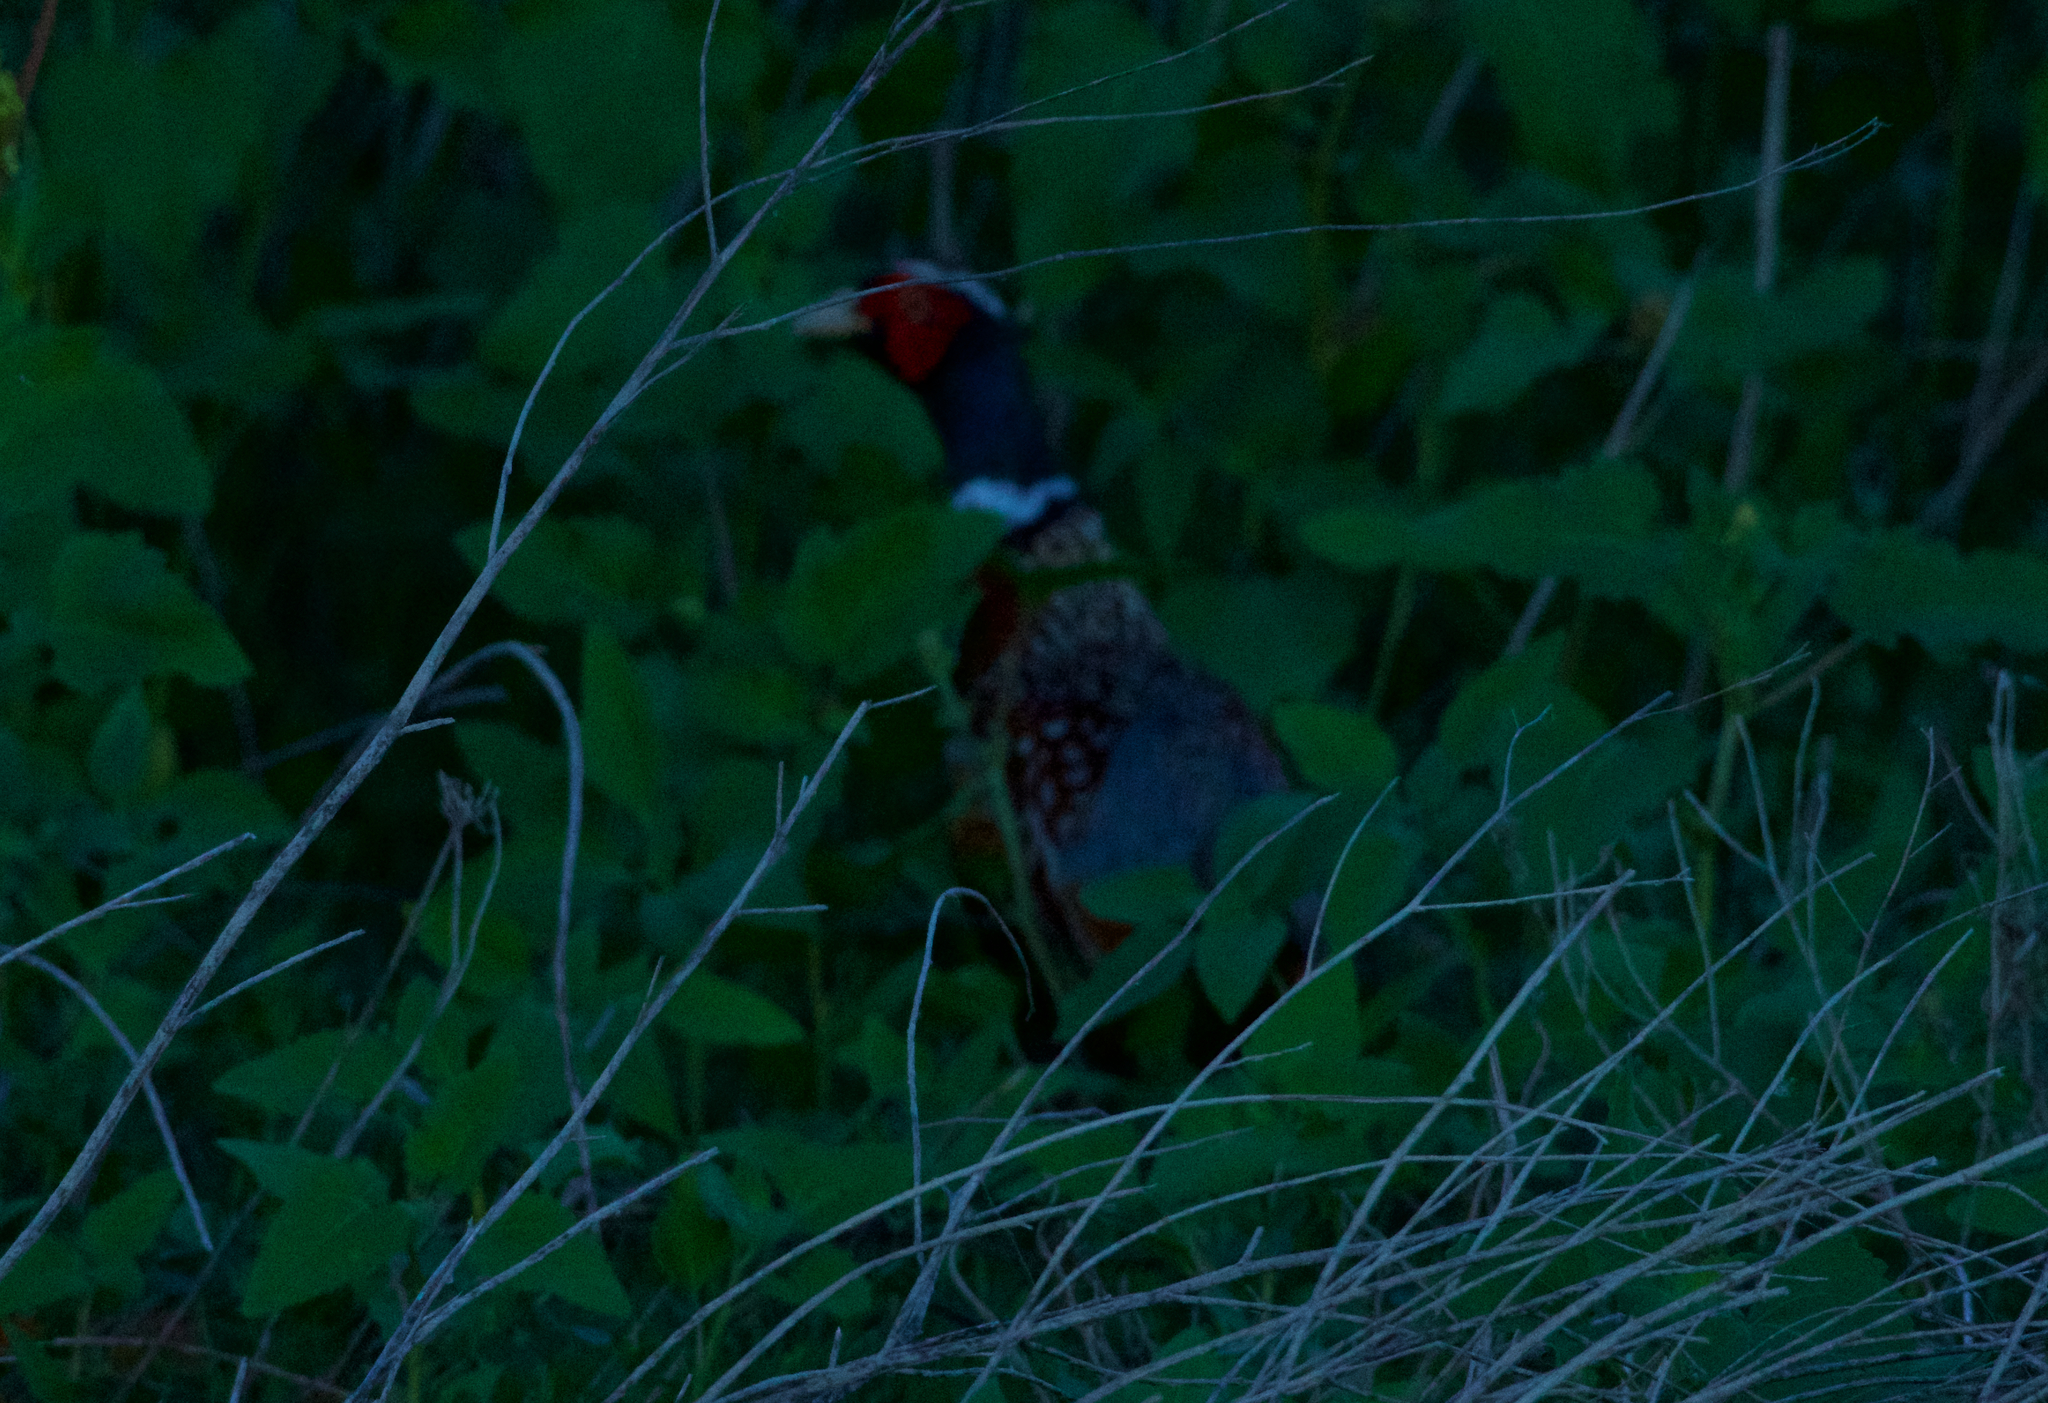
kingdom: Animalia
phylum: Chordata
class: Aves
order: Galliformes
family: Phasianidae
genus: Phasianus
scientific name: Phasianus colchicus
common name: Common pheasant
